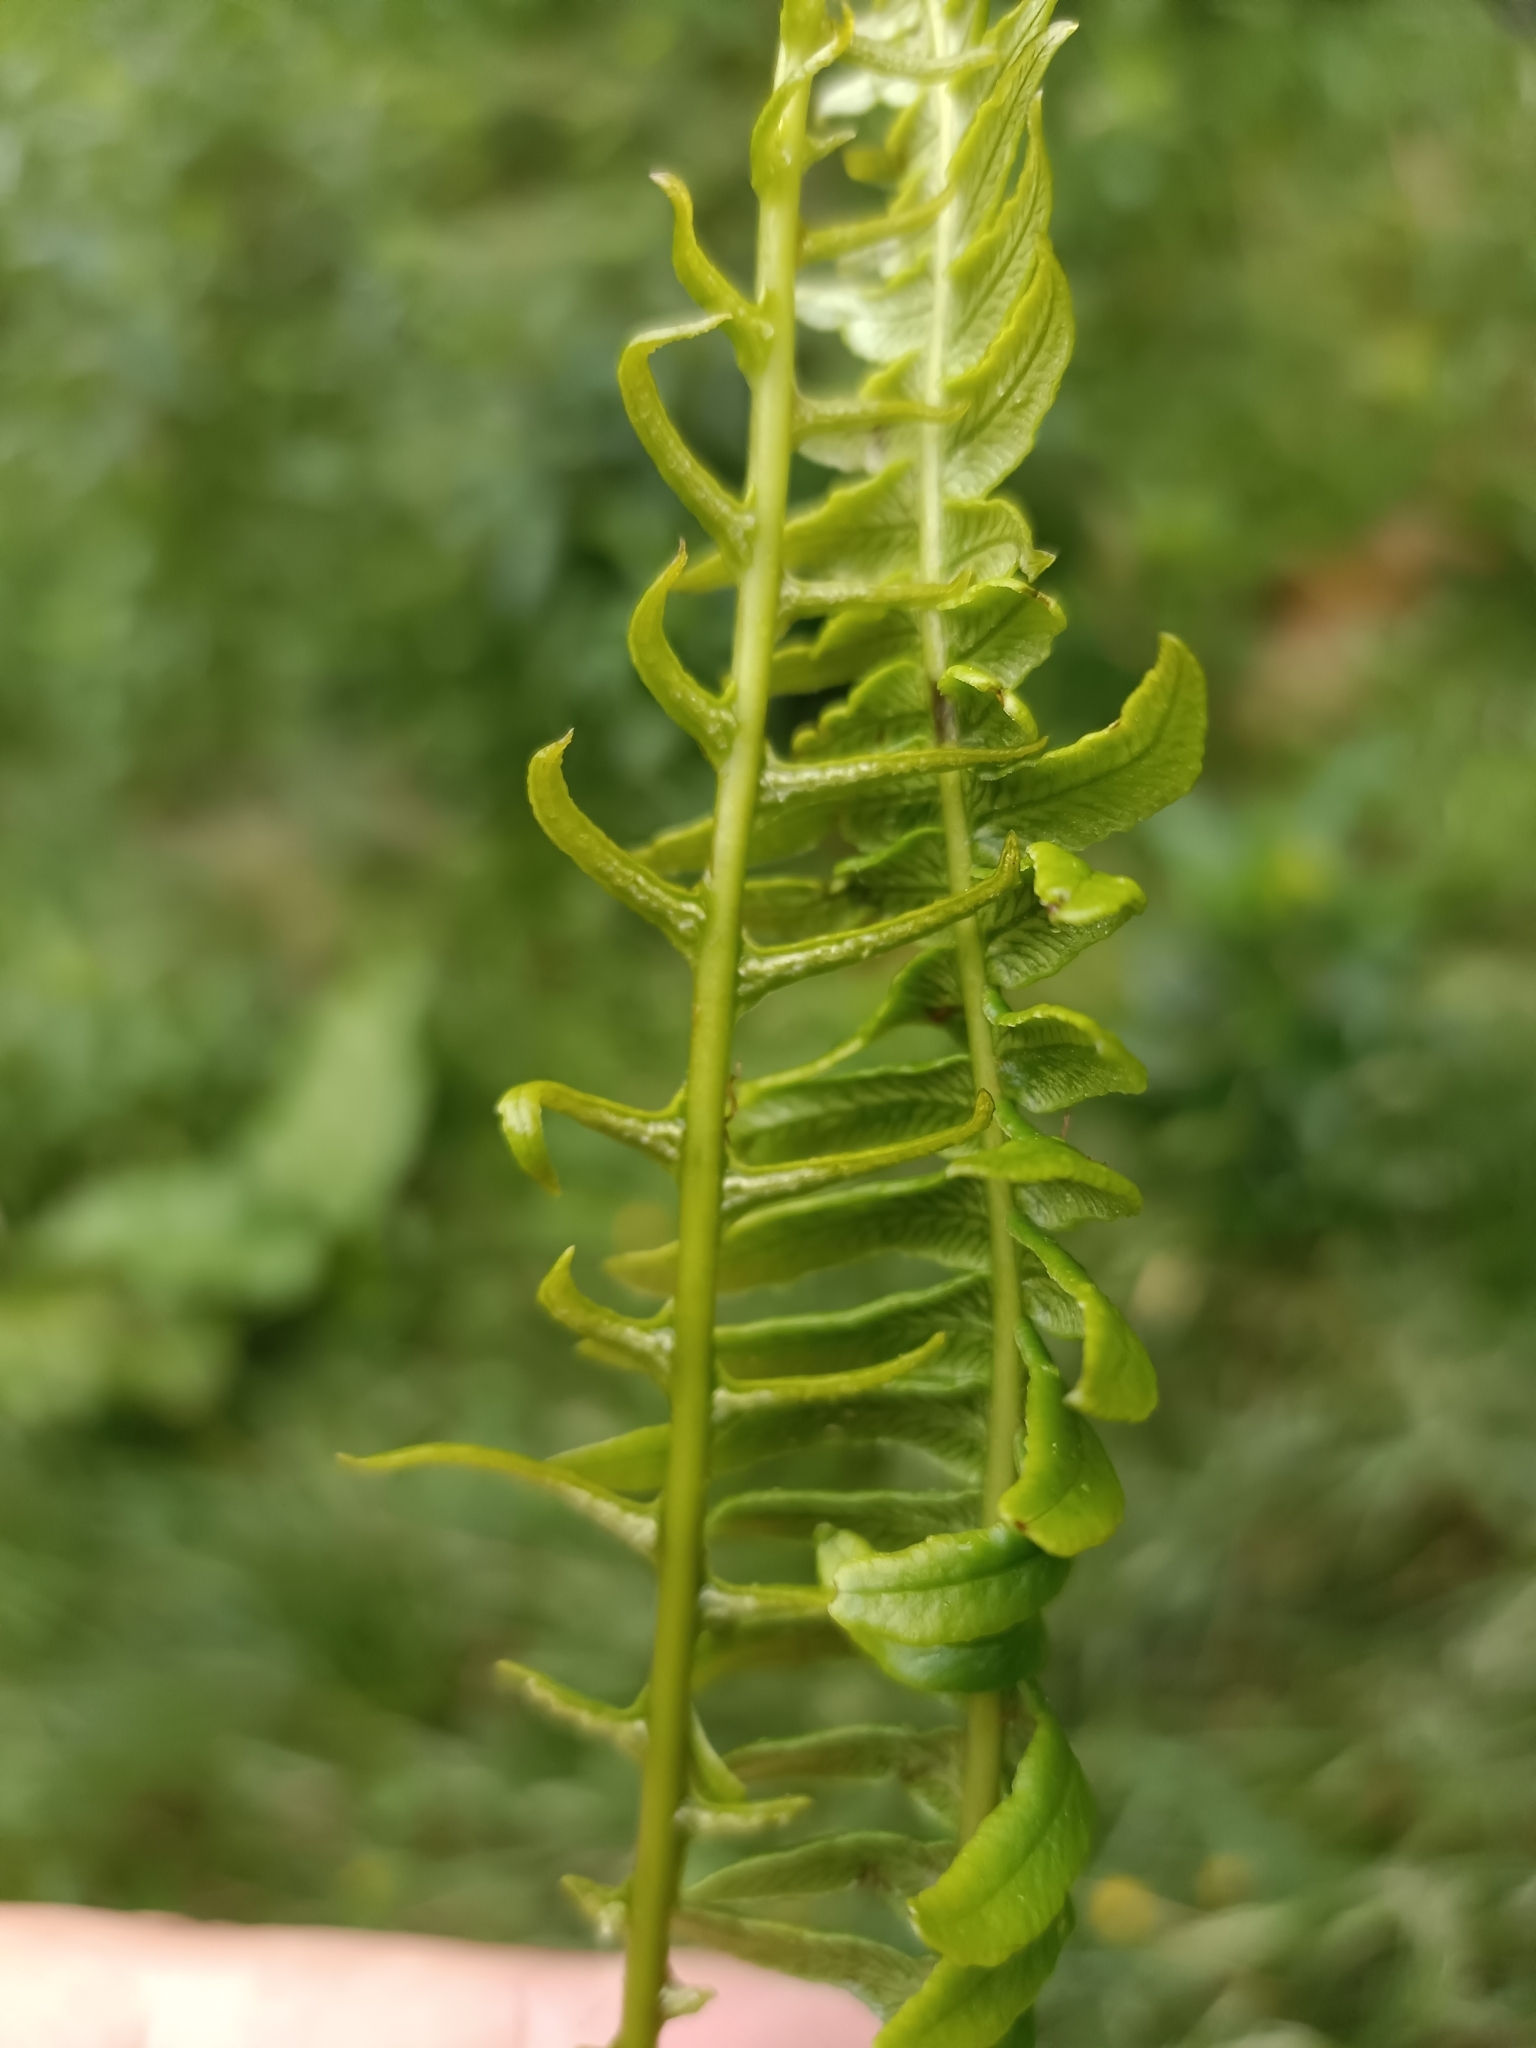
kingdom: Plantae
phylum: Tracheophyta
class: Polypodiopsida
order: Polypodiales
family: Blechnaceae
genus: Struthiopteris
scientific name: Struthiopteris spicant
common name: Deer fern
